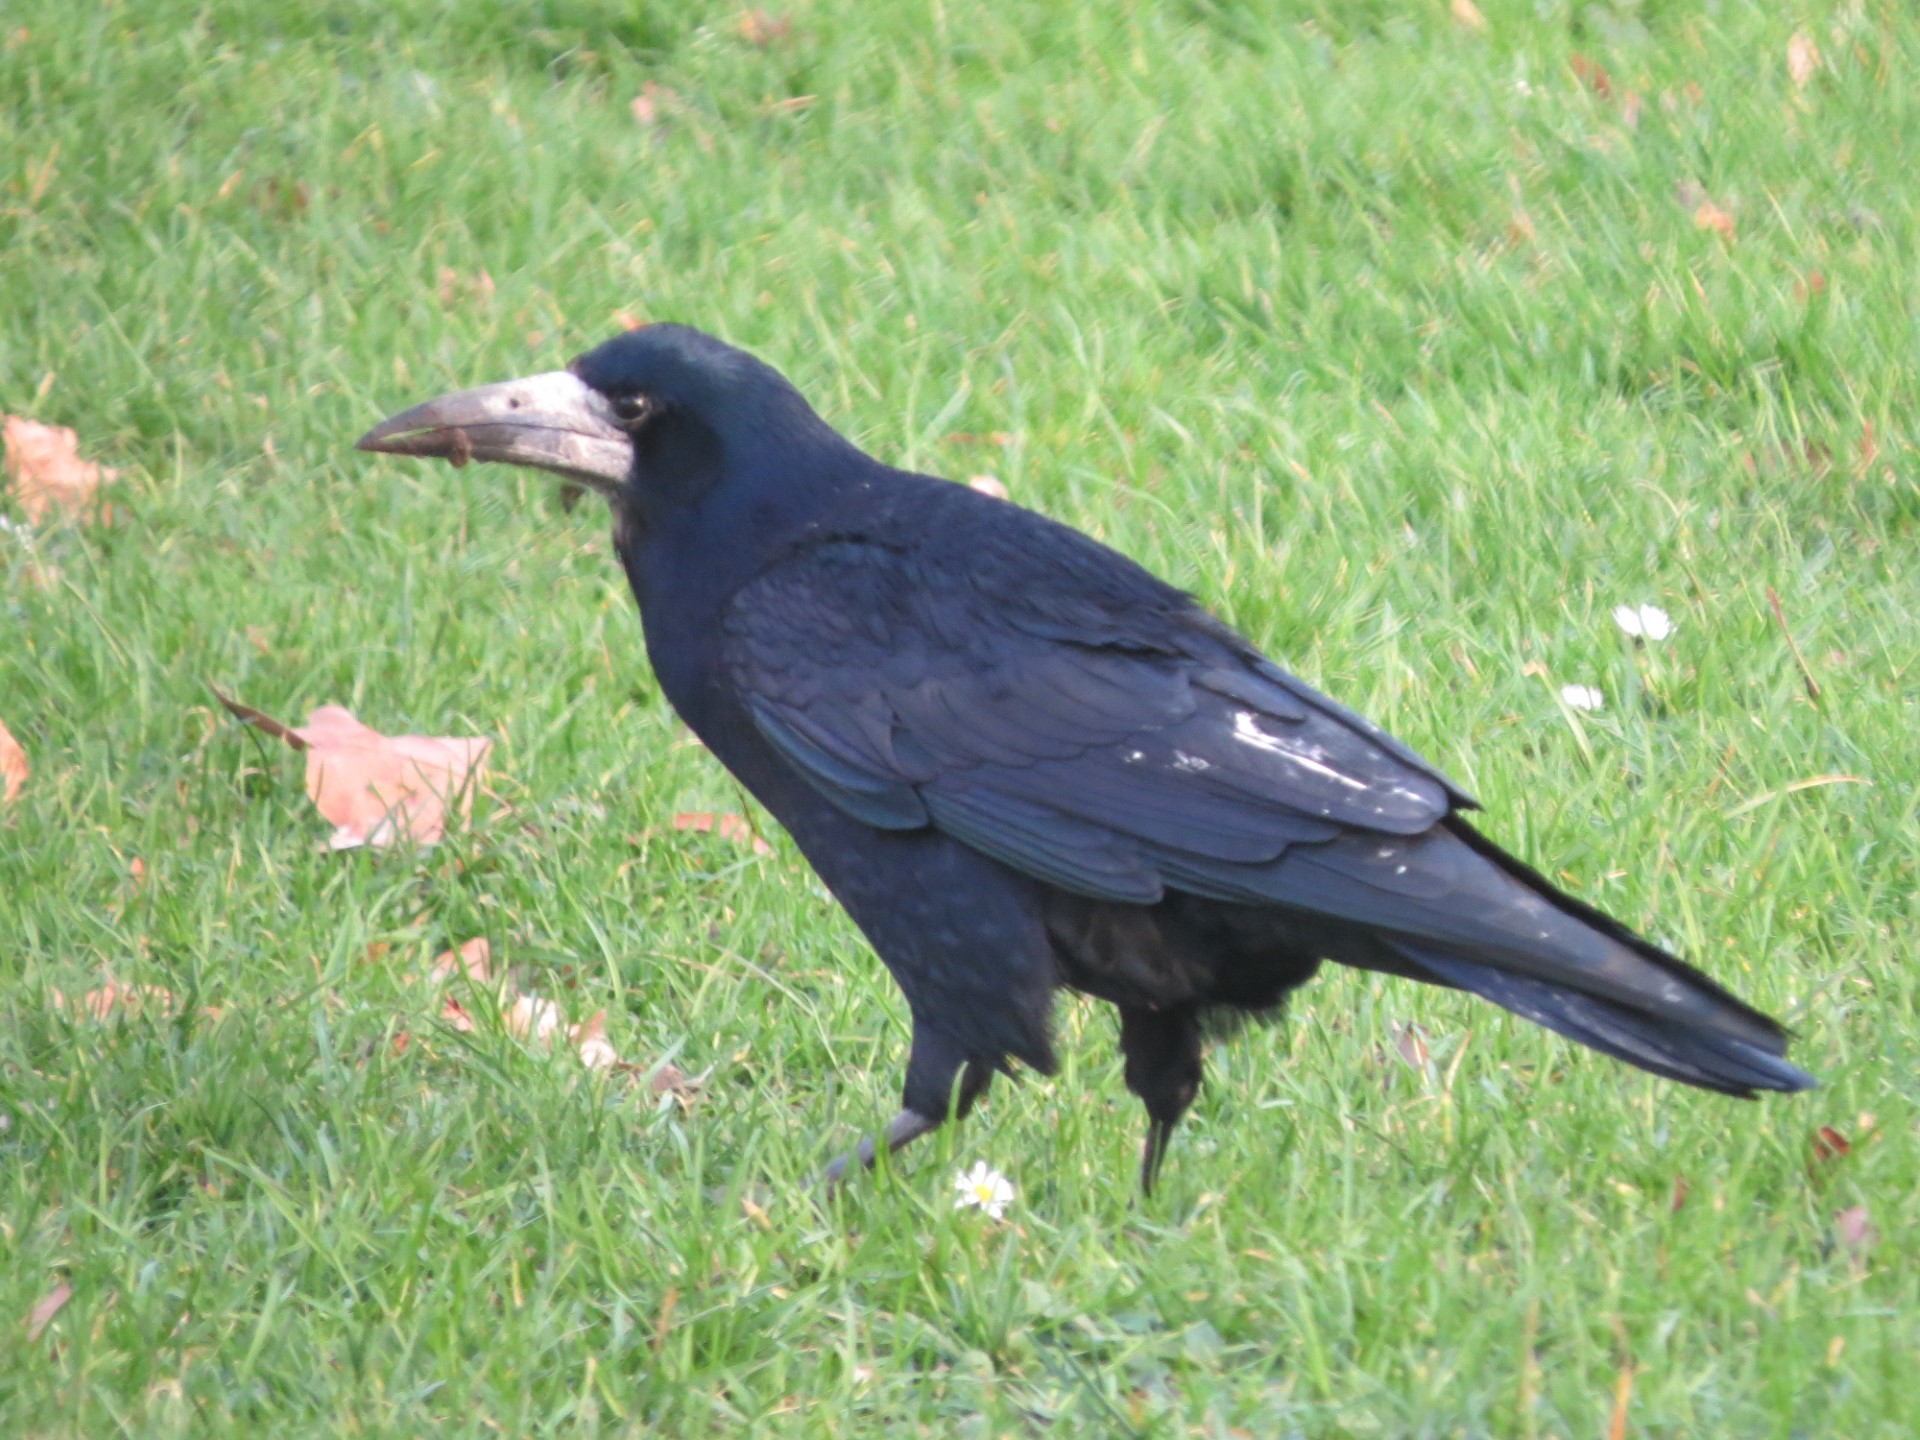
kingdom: Animalia
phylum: Chordata
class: Aves
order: Passeriformes
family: Corvidae
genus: Corvus
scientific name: Corvus frugilegus
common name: Rook
